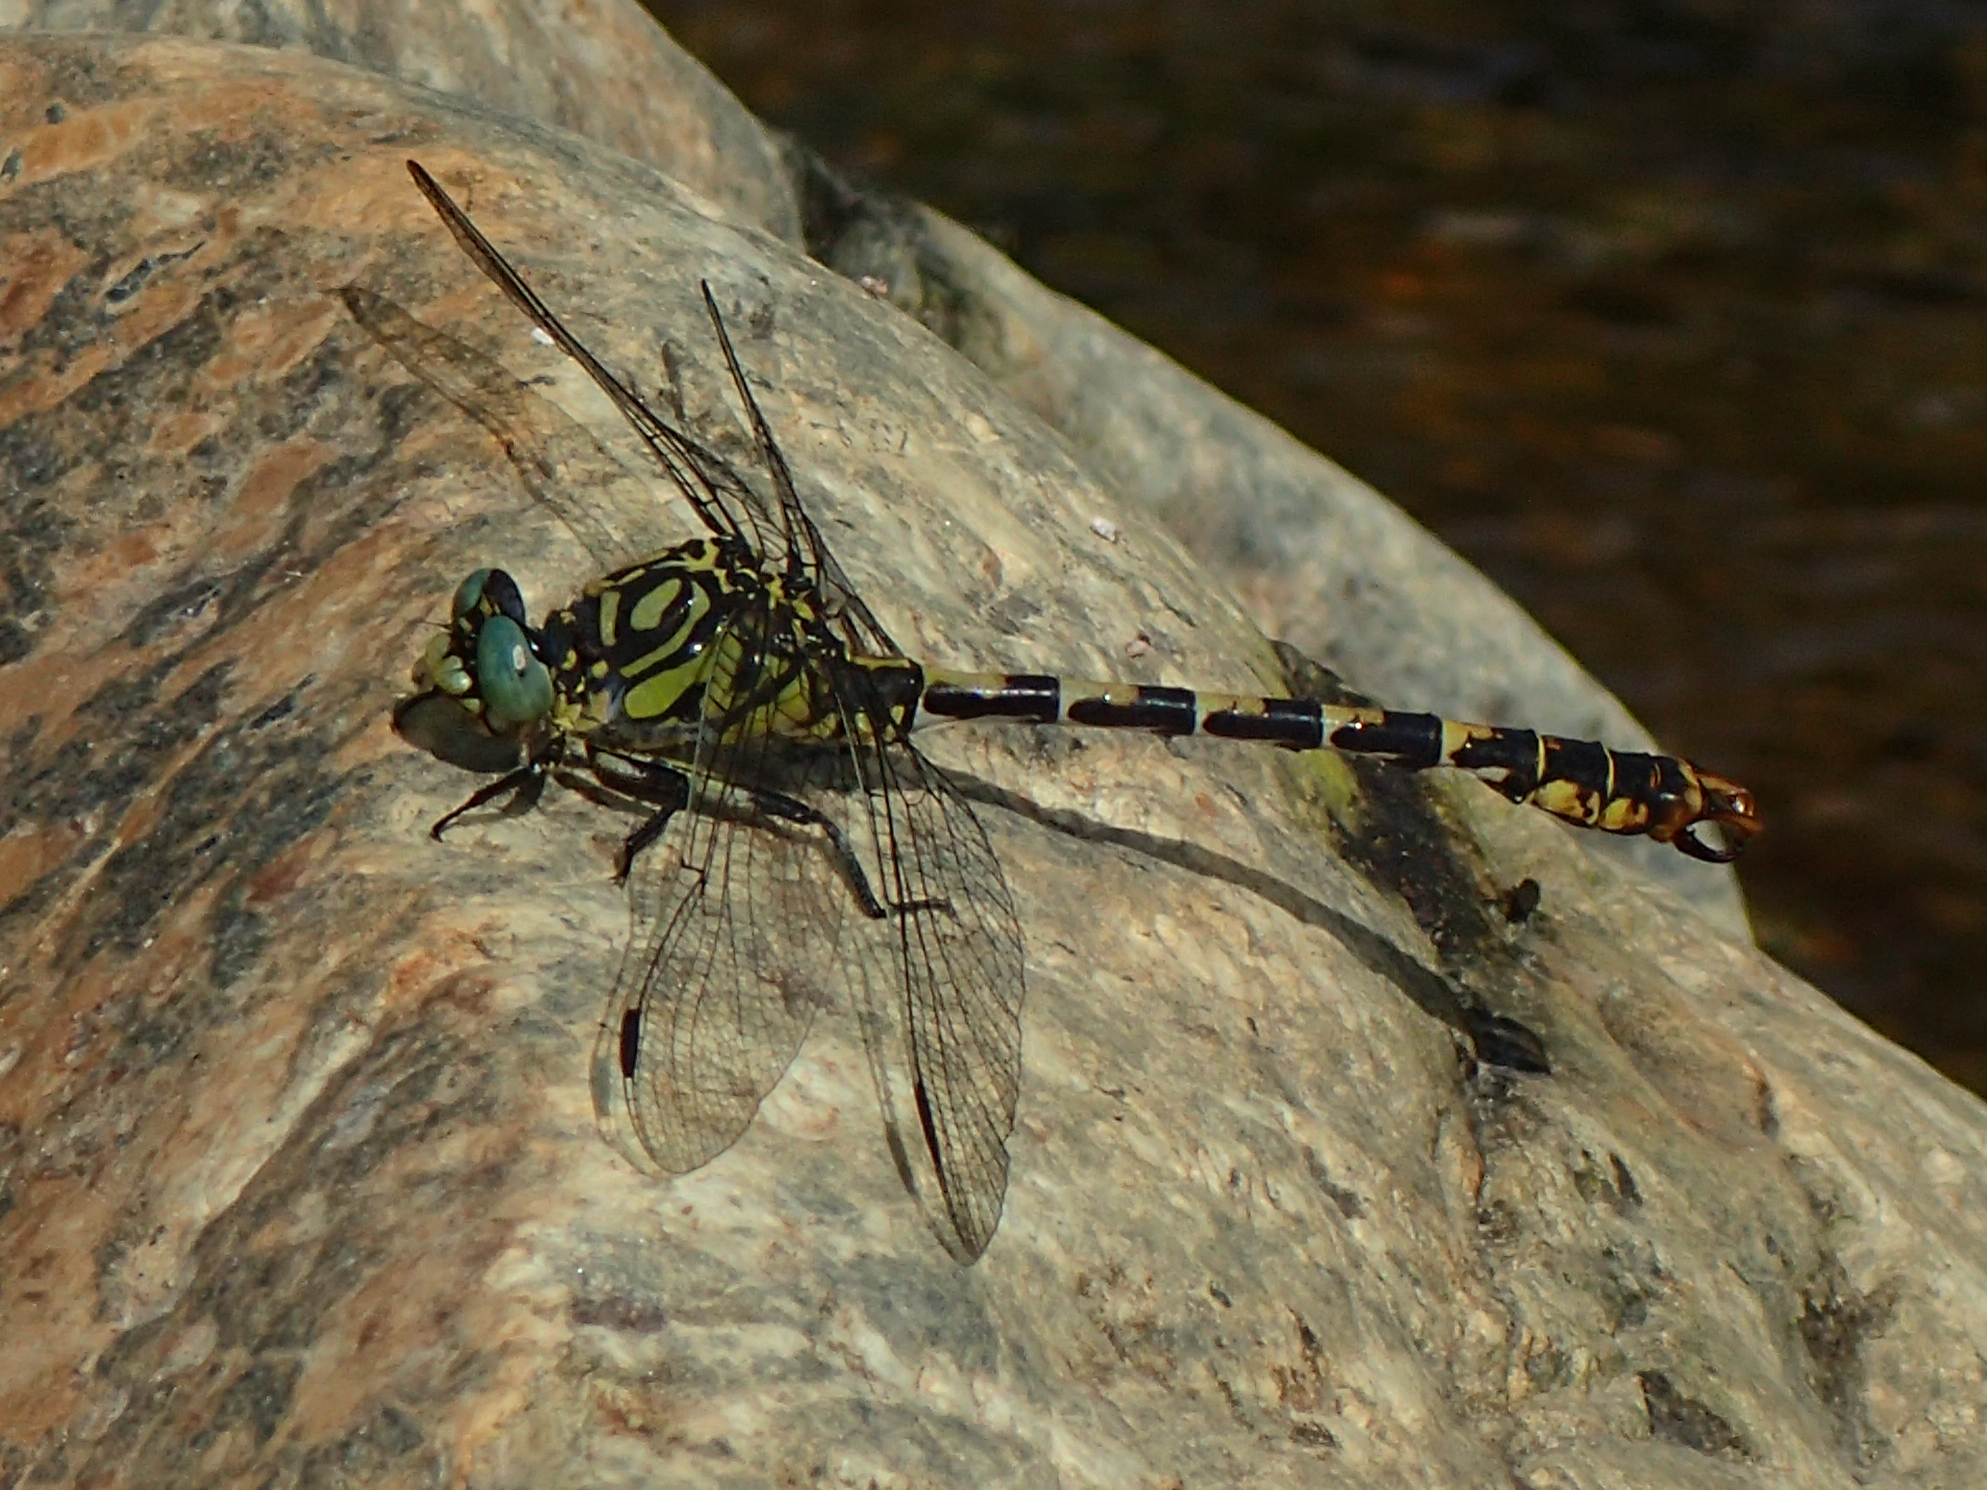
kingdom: Animalia
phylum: Arthropoda
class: Insecta
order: Odonata
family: Gomphidae
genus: Onychogomphus
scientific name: Onychogomphus forcipatus
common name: Small pincertail
